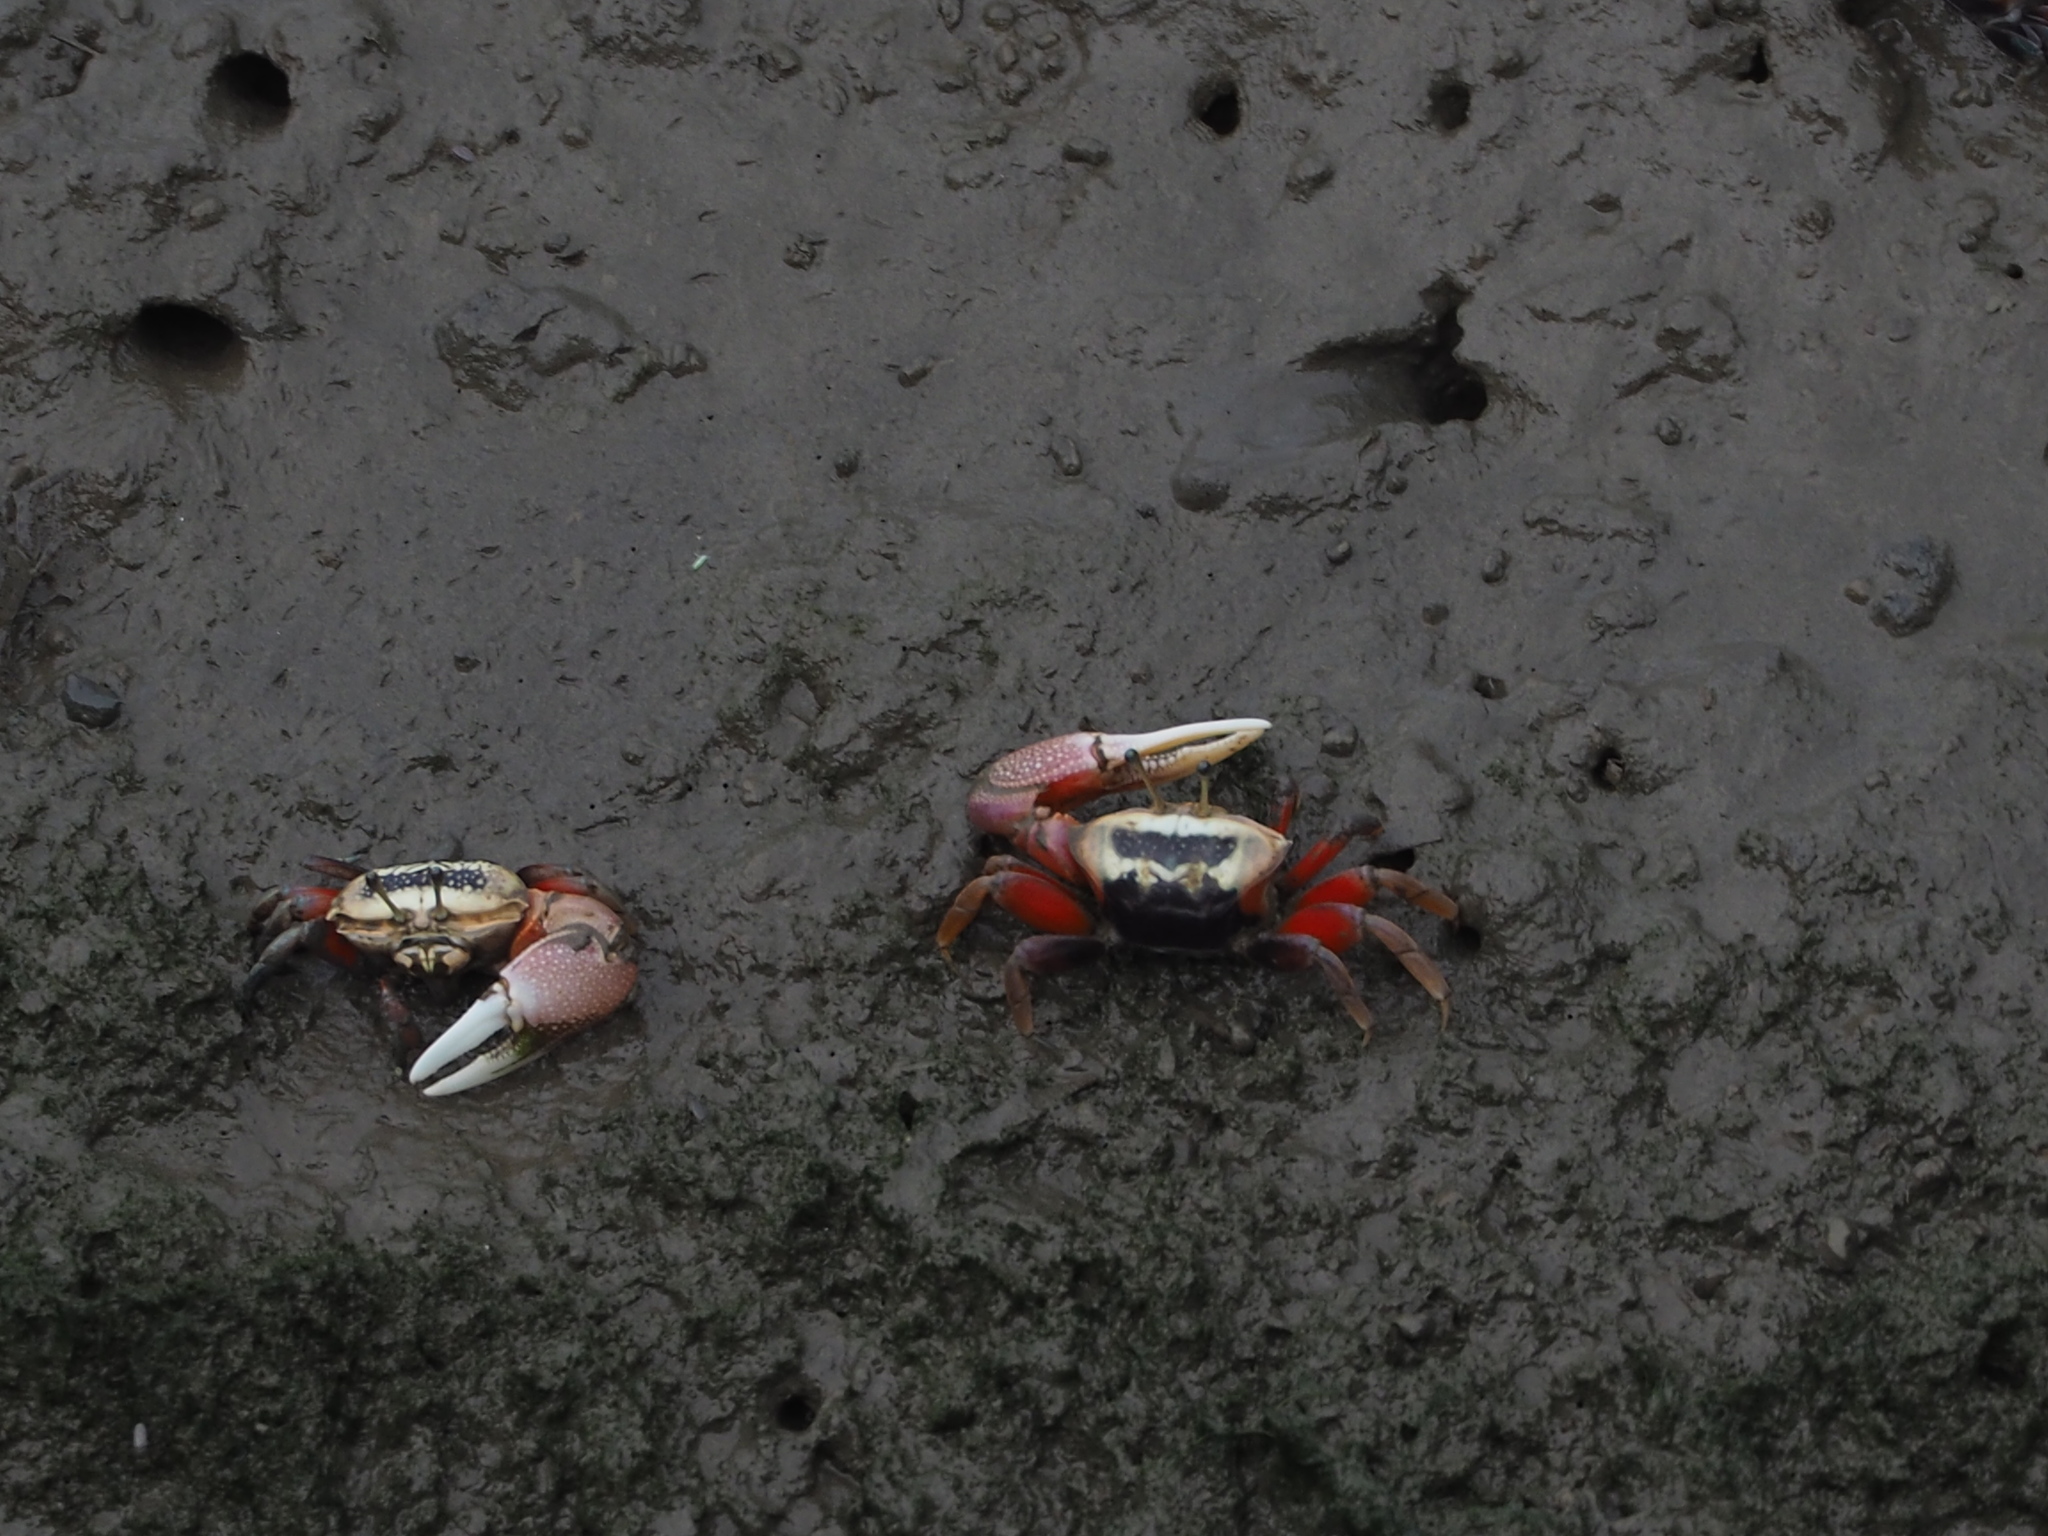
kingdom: Animalia
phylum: Arthropoda
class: Malacostraca
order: Decapoda
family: Ocypodidae
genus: Tubuca
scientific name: Tubuca arcuata
